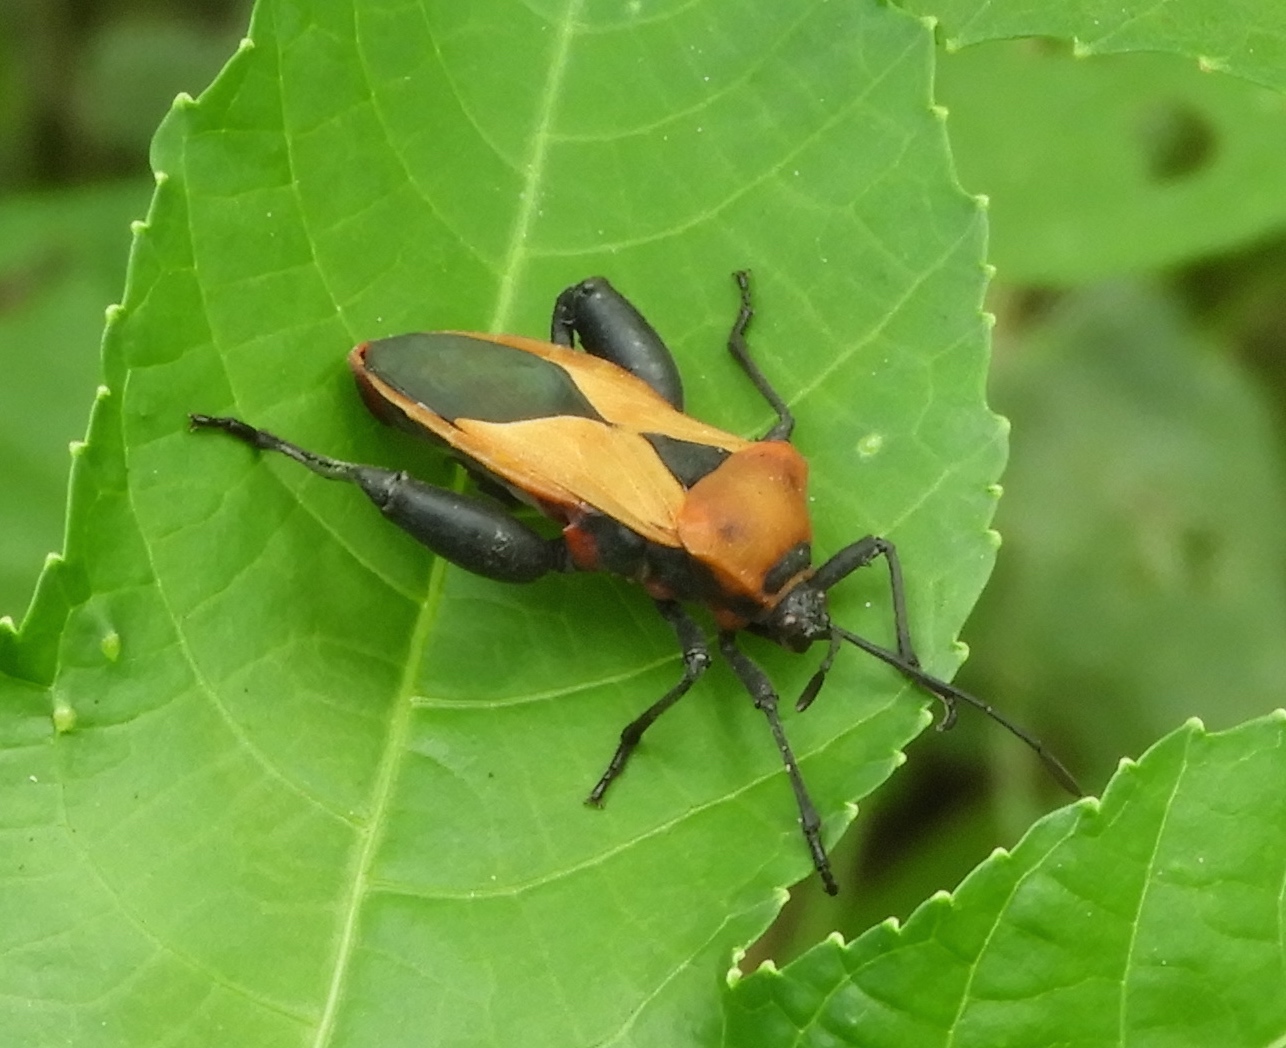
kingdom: Animalia
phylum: Arthropoda
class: Insecta
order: Hemiptera
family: Coreidae
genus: Sagotylus
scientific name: Sagotylus confluens
